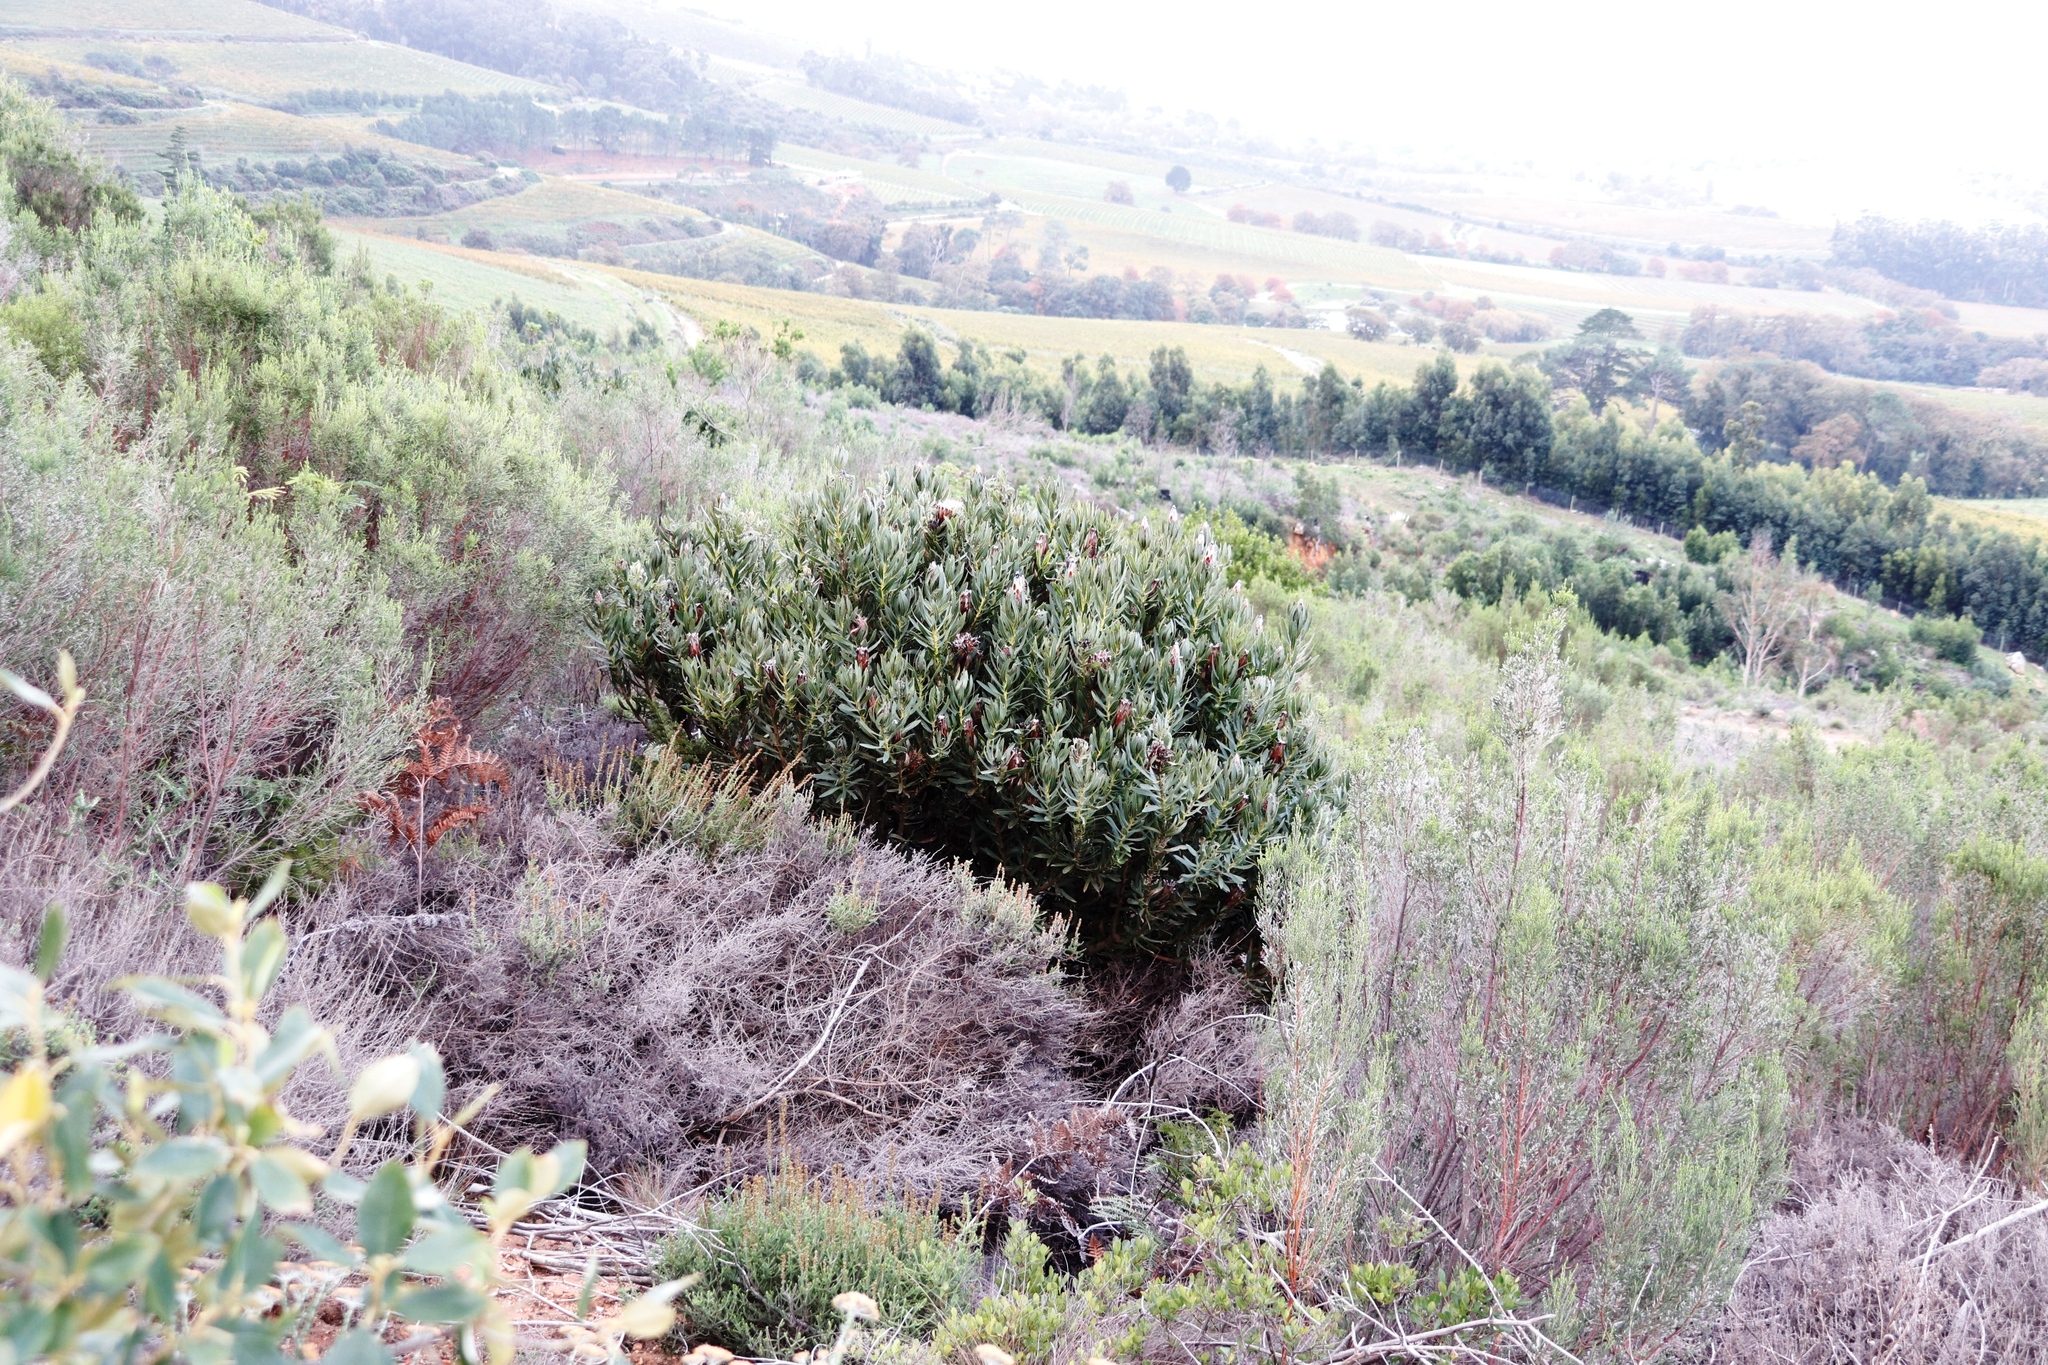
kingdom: Plantae
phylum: Tracheophyta
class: Magnoliopsida
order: Proteales
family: Proteaceae
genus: Protea
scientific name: Protea lepidocarpodendron
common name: Black-bearded protea
